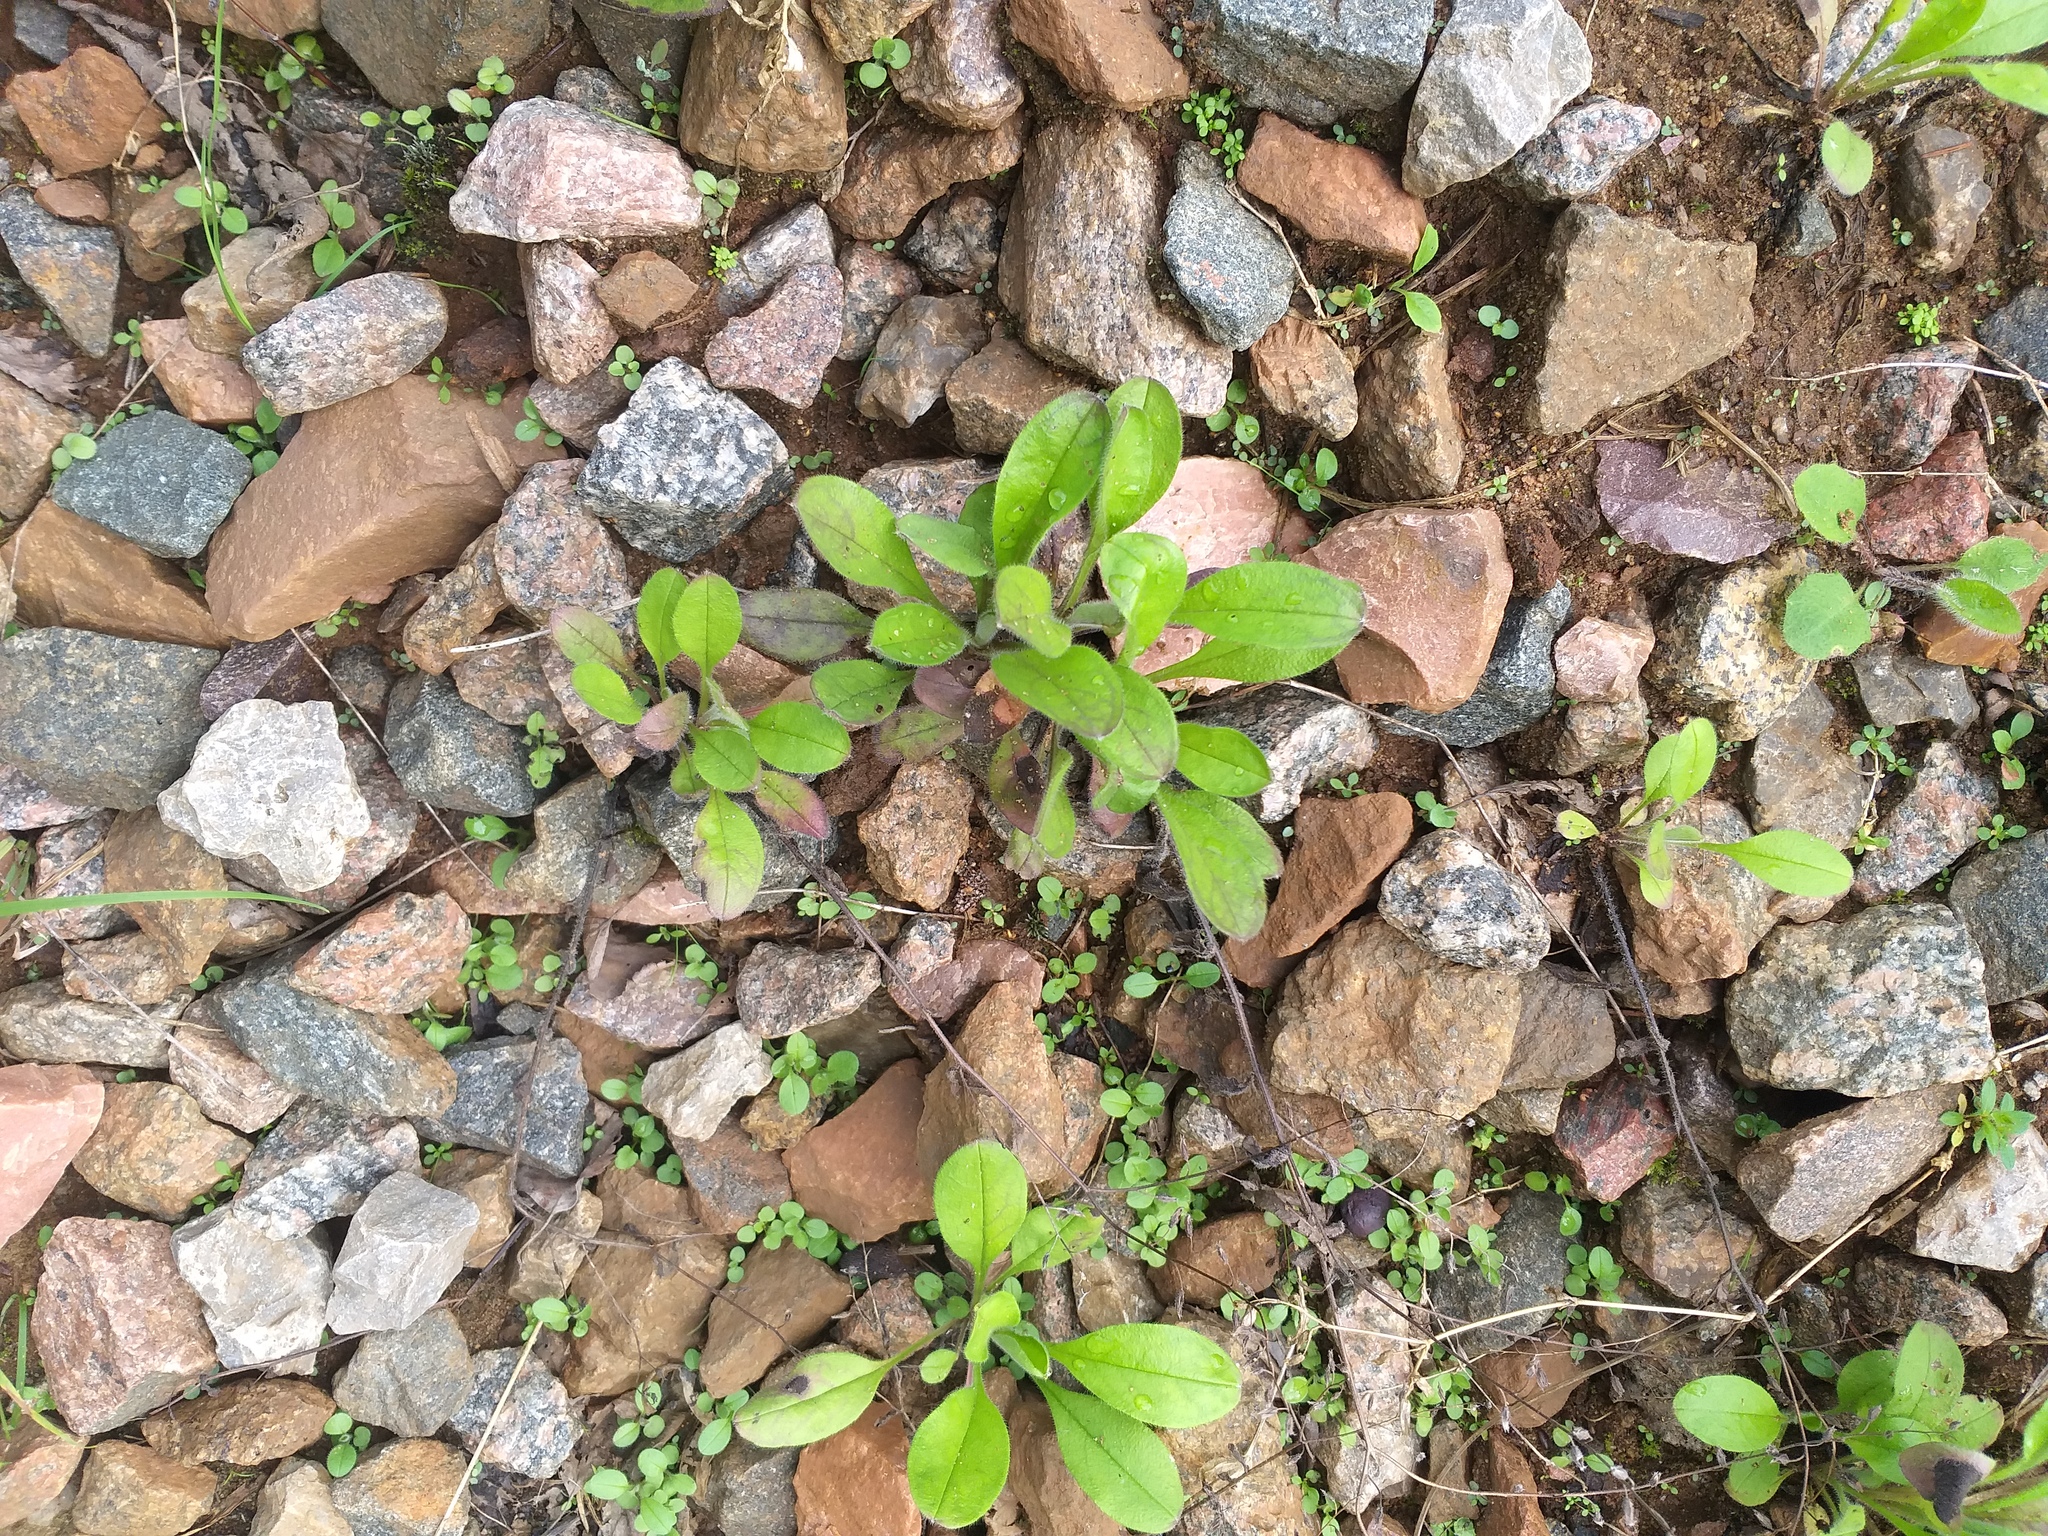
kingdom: Plantae
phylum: Tracheophyta
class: Magnoliopsida
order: Boraginales
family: Boraginaceae
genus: Myosotis
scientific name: Myosotis arvensis
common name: Field forget-me-not
